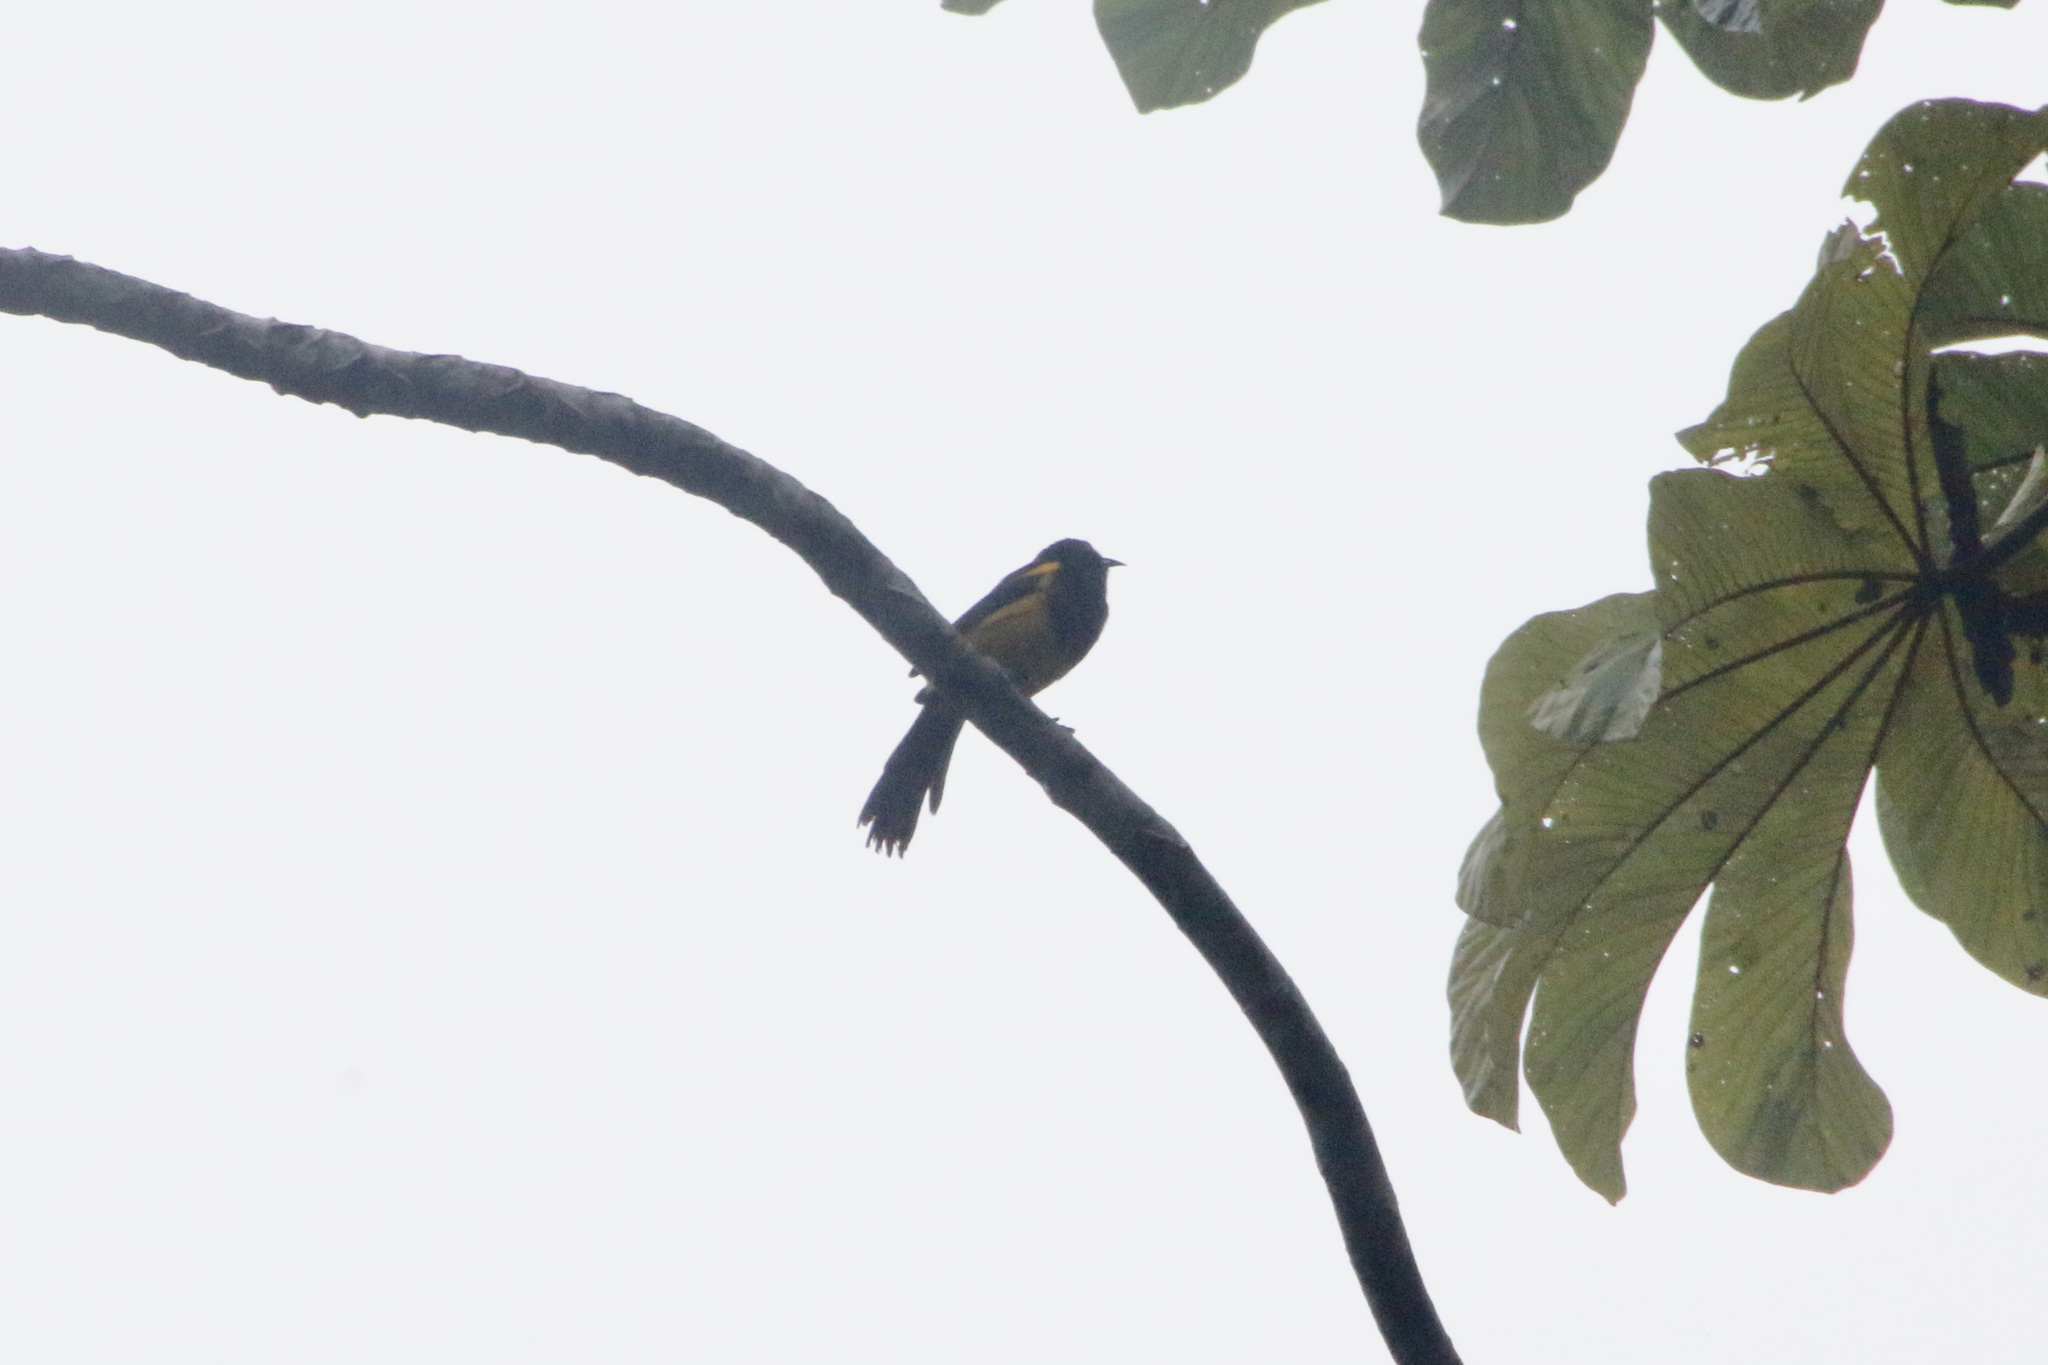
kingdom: Animalia
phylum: Chordata
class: Aves
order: Passeriformes
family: Icteridae
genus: Icterus
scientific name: Icterus prosthemelas
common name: Black-cowled oriole
